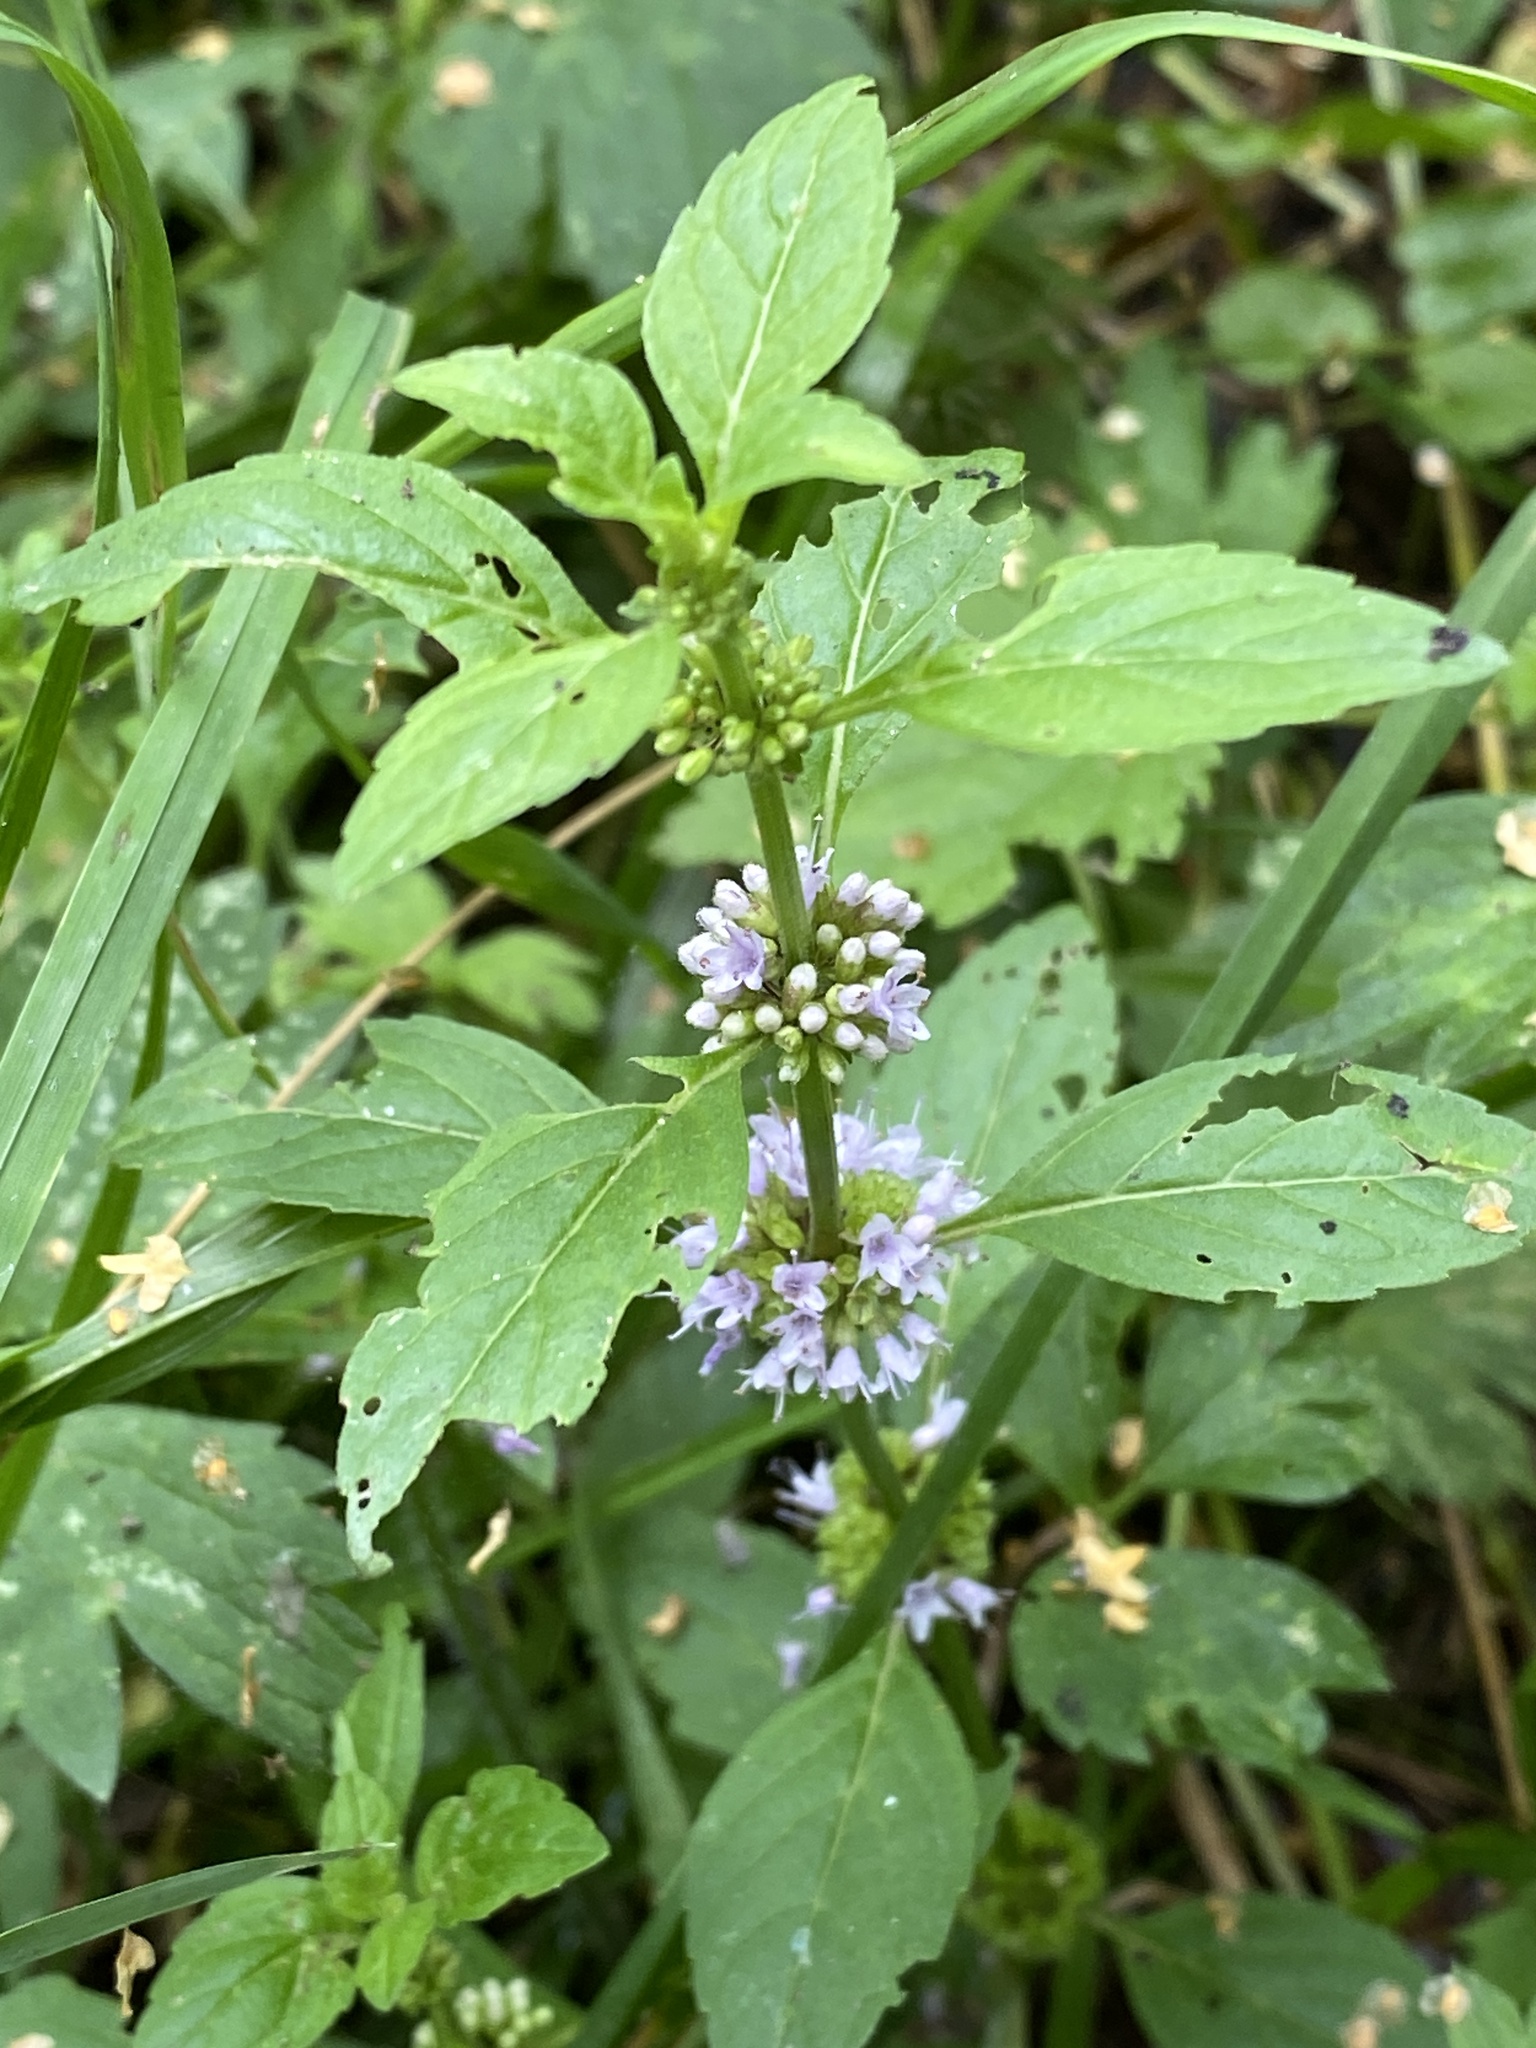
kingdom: Plantae
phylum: Tracheophyta
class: Magnoliopsida
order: Lamiales
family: Lamiaceae
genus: Mentha
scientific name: Mentha arvensis
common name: Corn mint
